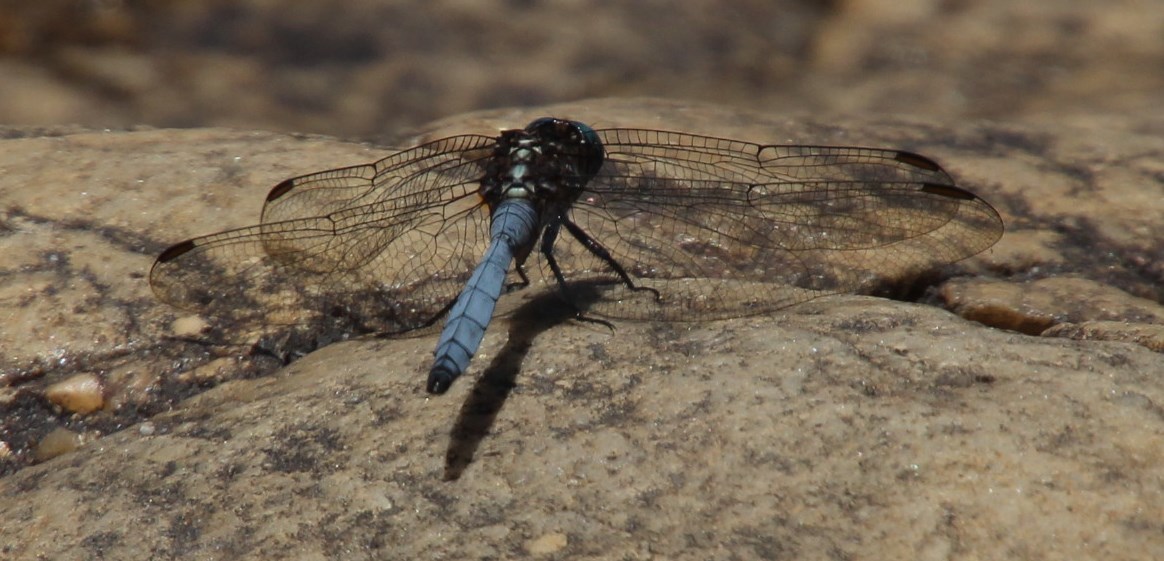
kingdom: Animalia
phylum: Arthropoda
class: Insecta
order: Odonata
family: Libellulidae
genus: Orthetrum
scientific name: Orthetrum julia
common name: Julia skimmer
